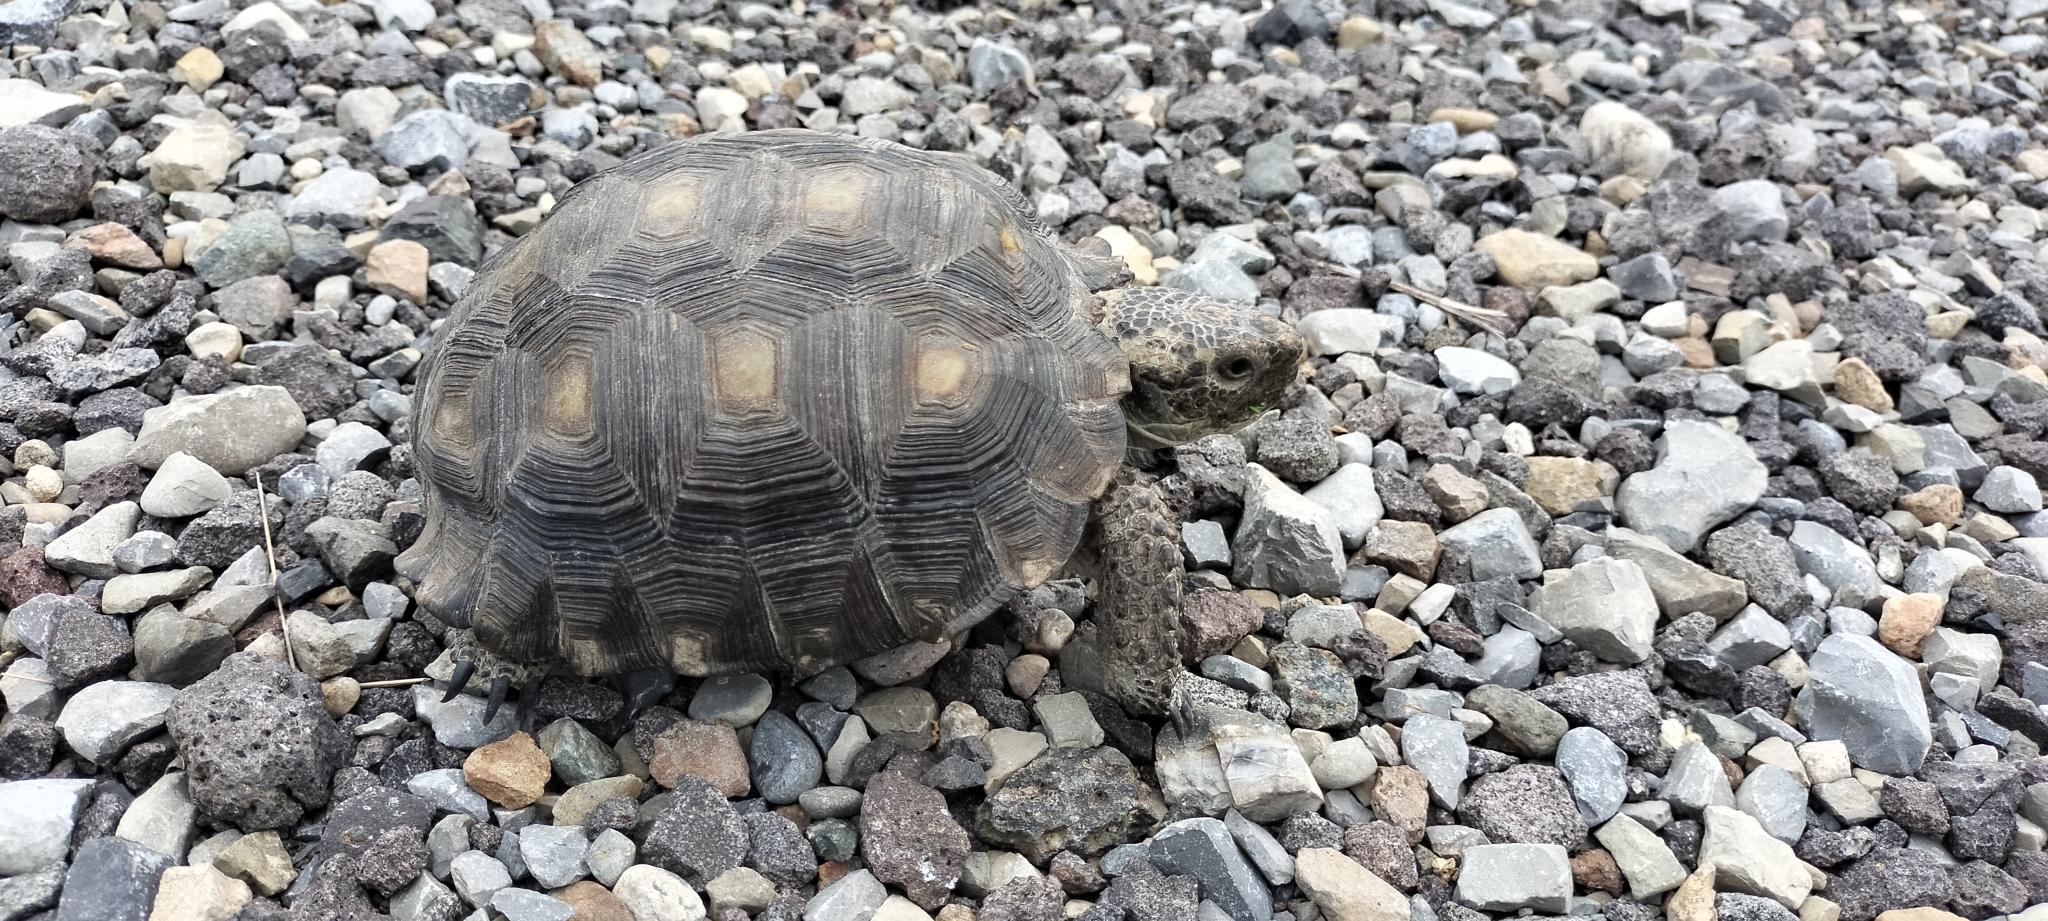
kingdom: Animalia
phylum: Chordata
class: Testudines
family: Testudinidae
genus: Gopherus
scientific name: Gopherus berlandieri
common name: Texas (gopher )tortoise
